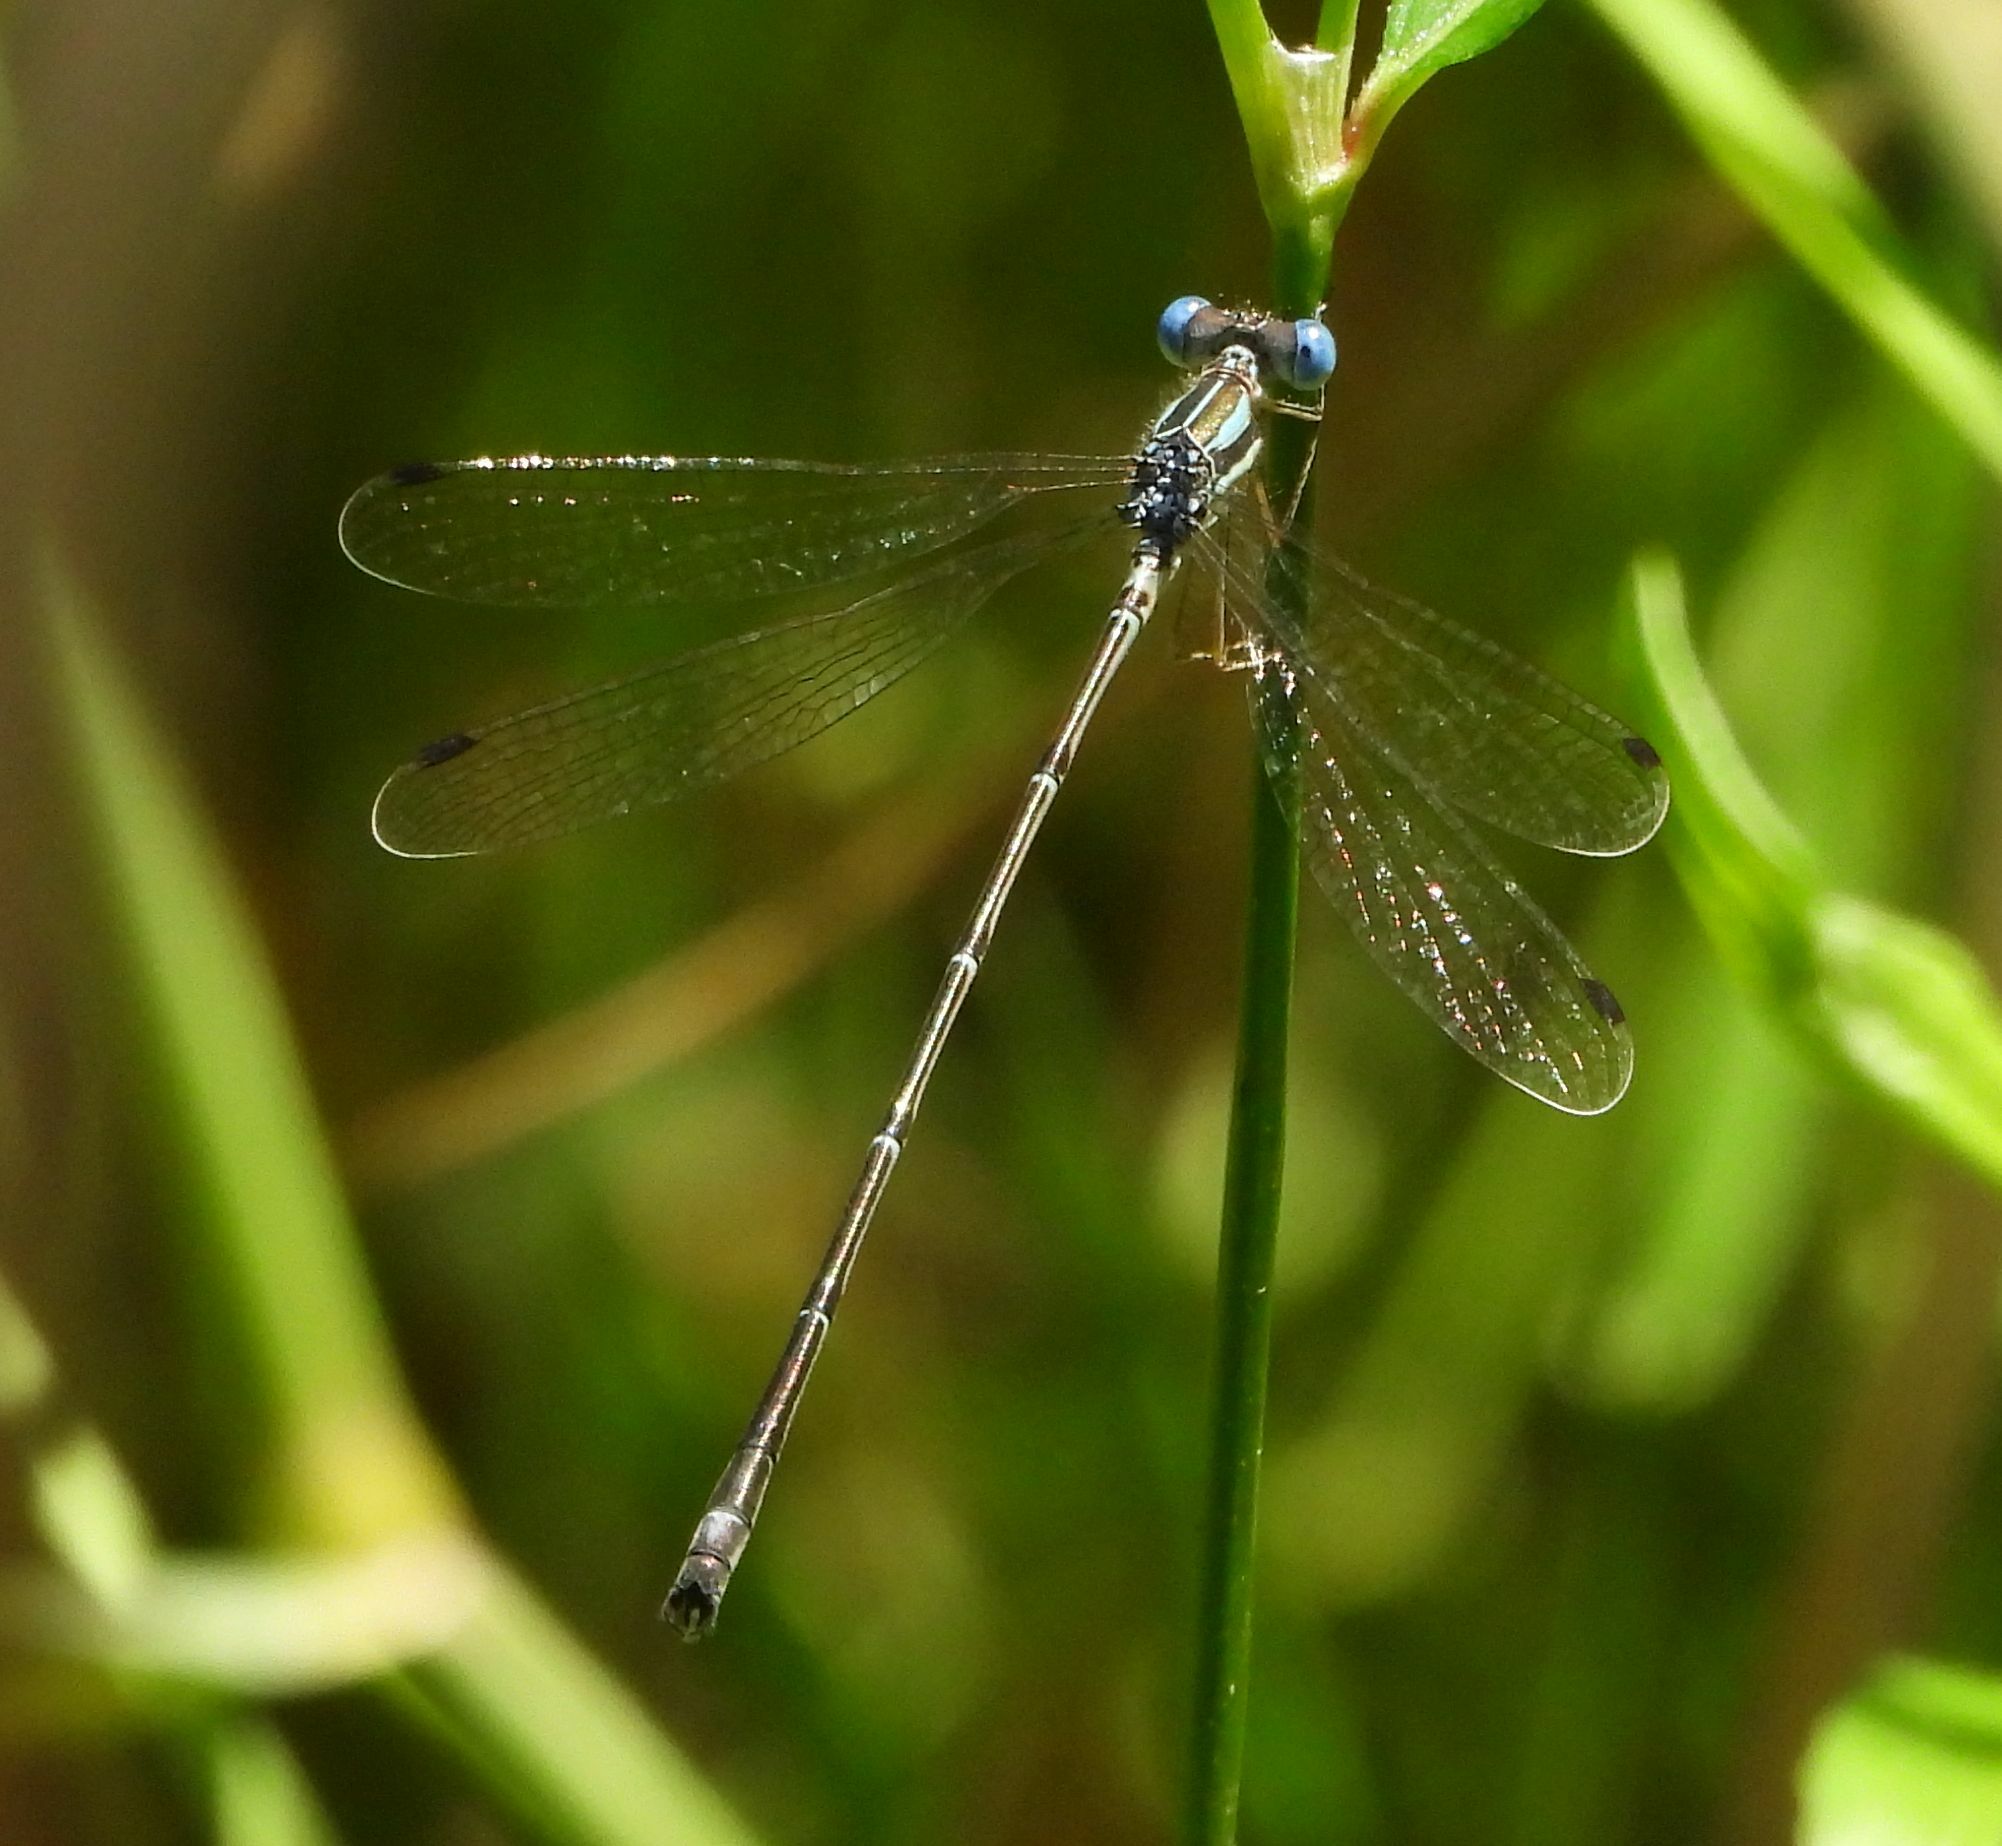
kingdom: Animalia
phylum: Arthropoda
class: Insecta
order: Odonata
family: Lestidae
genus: Lestes
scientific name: Lestes rectangularis
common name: Slender spreadwing
